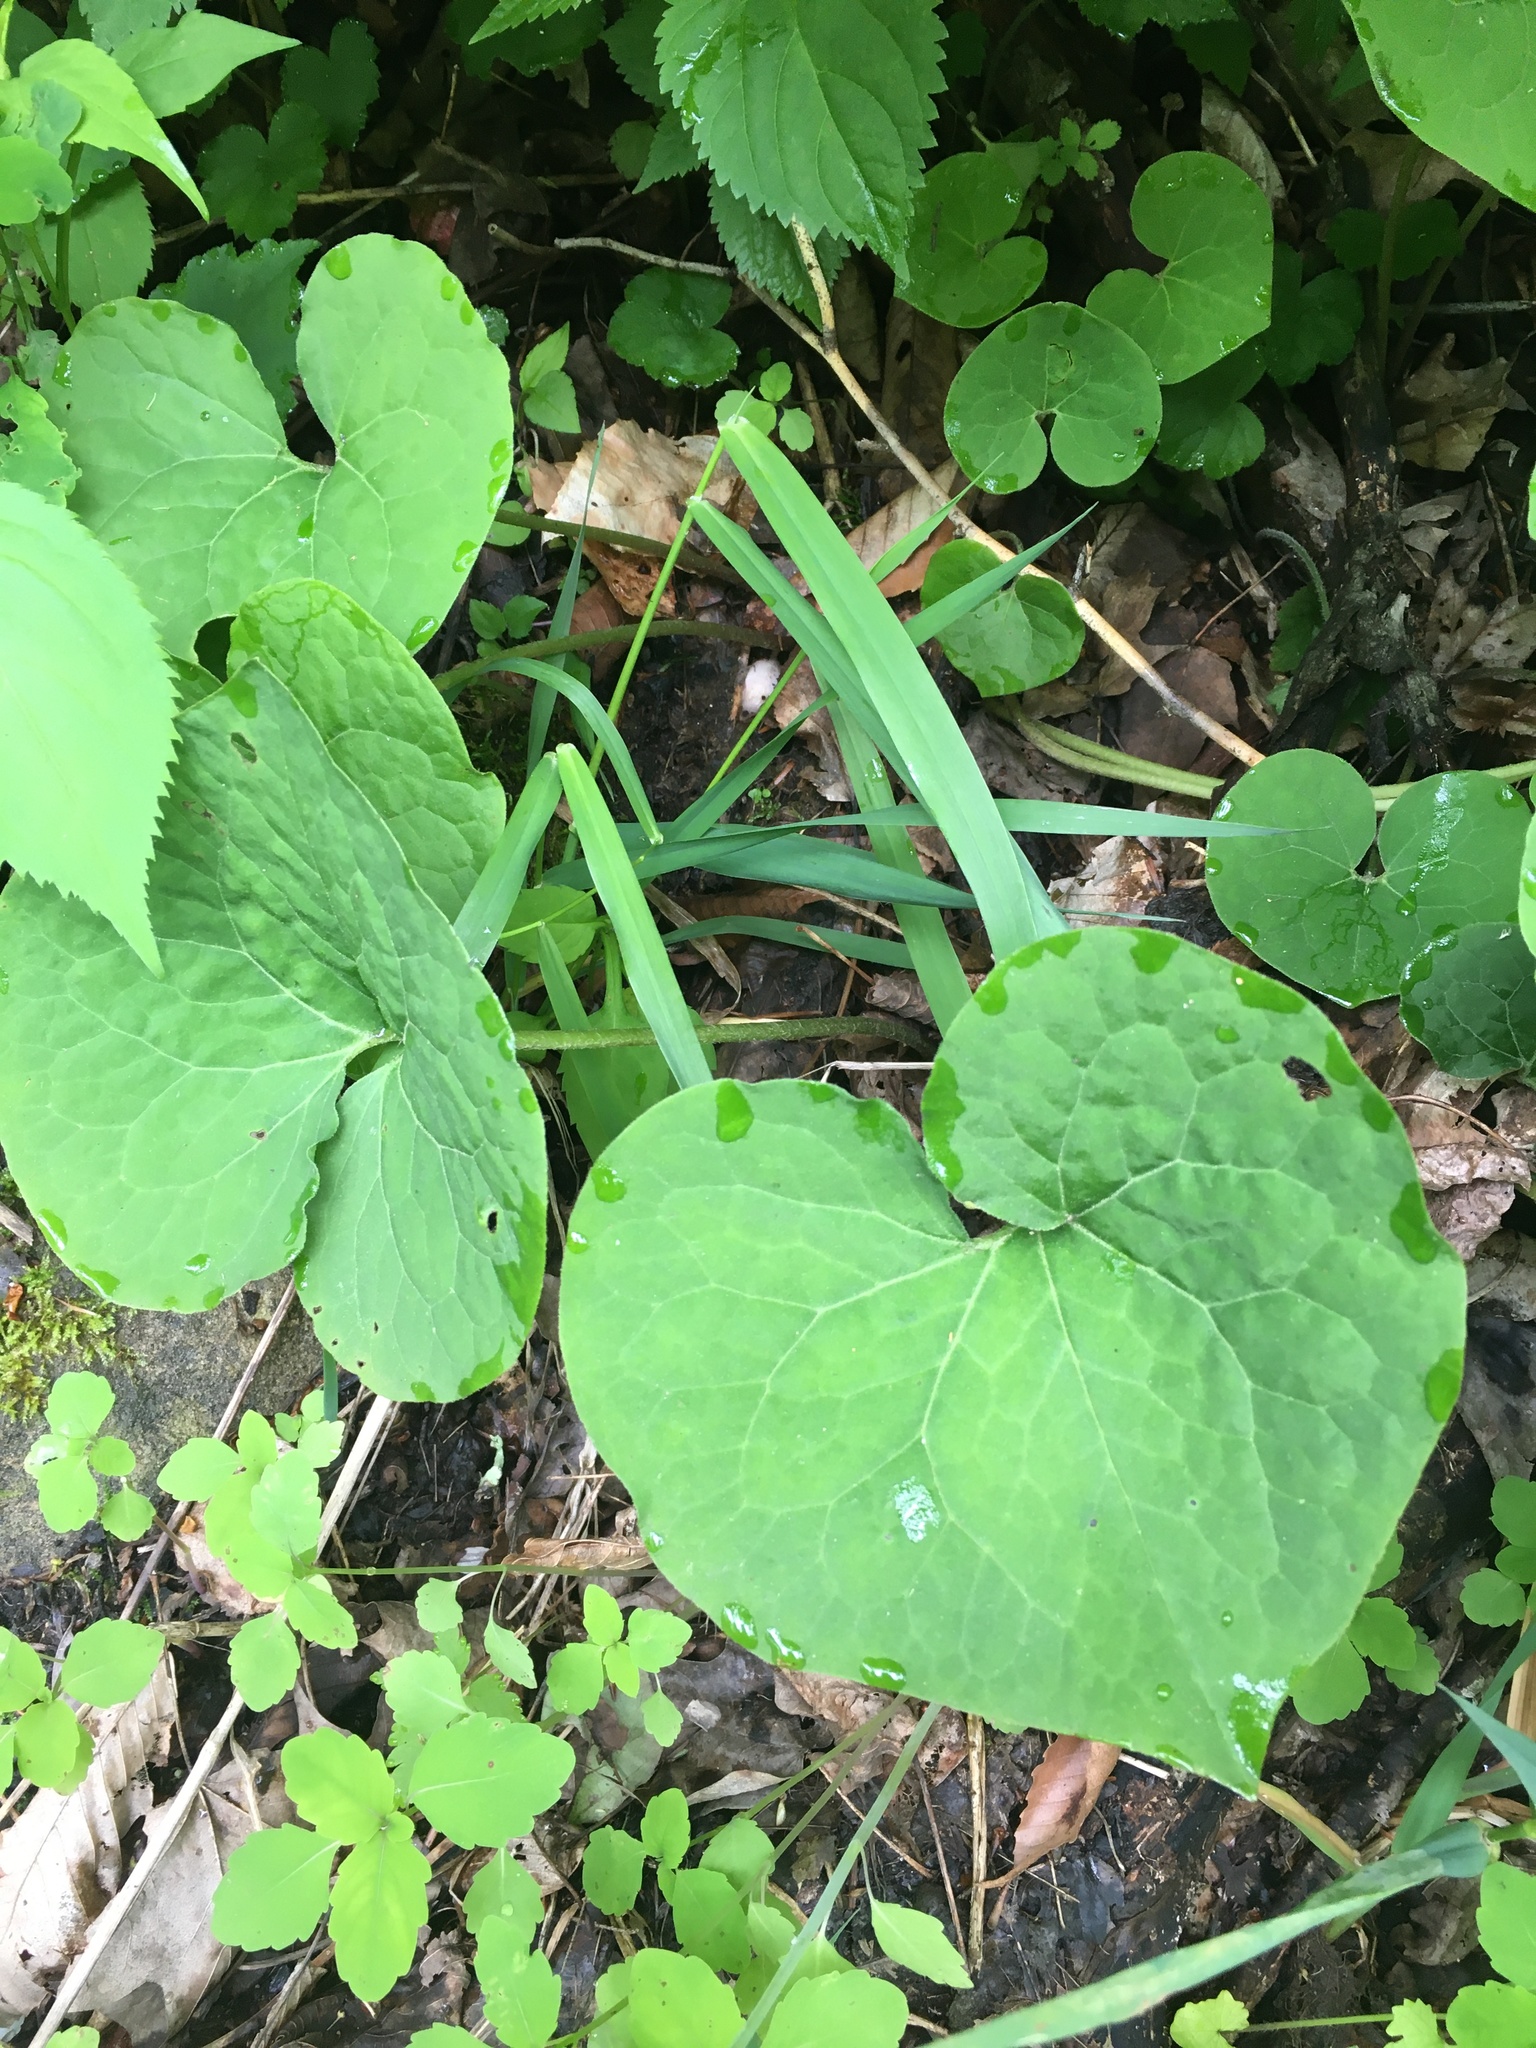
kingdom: Plantae
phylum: Tracheophyta
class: Magnoliopsida
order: Piperales
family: Aristolochiaceae
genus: Asarum
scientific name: Asarum canadense
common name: Wild ginger
